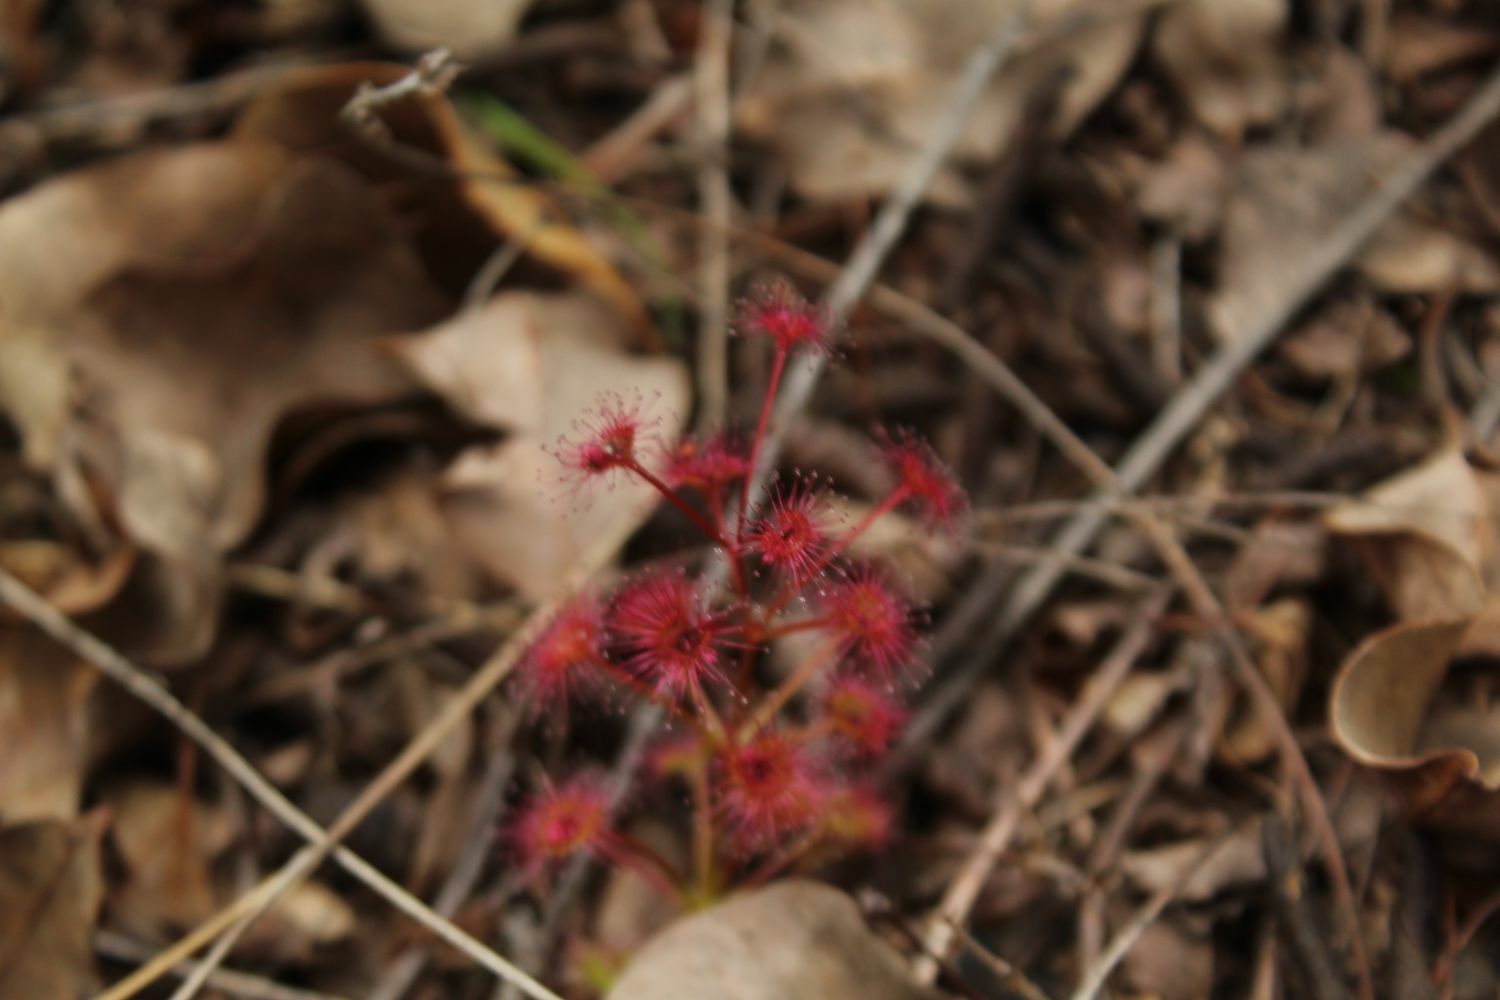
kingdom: Plantae
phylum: Tracheophyta
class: Magnoliopsida
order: Caryophyllales
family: Droseraceae
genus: Drosera
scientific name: Drosera stolonifera
